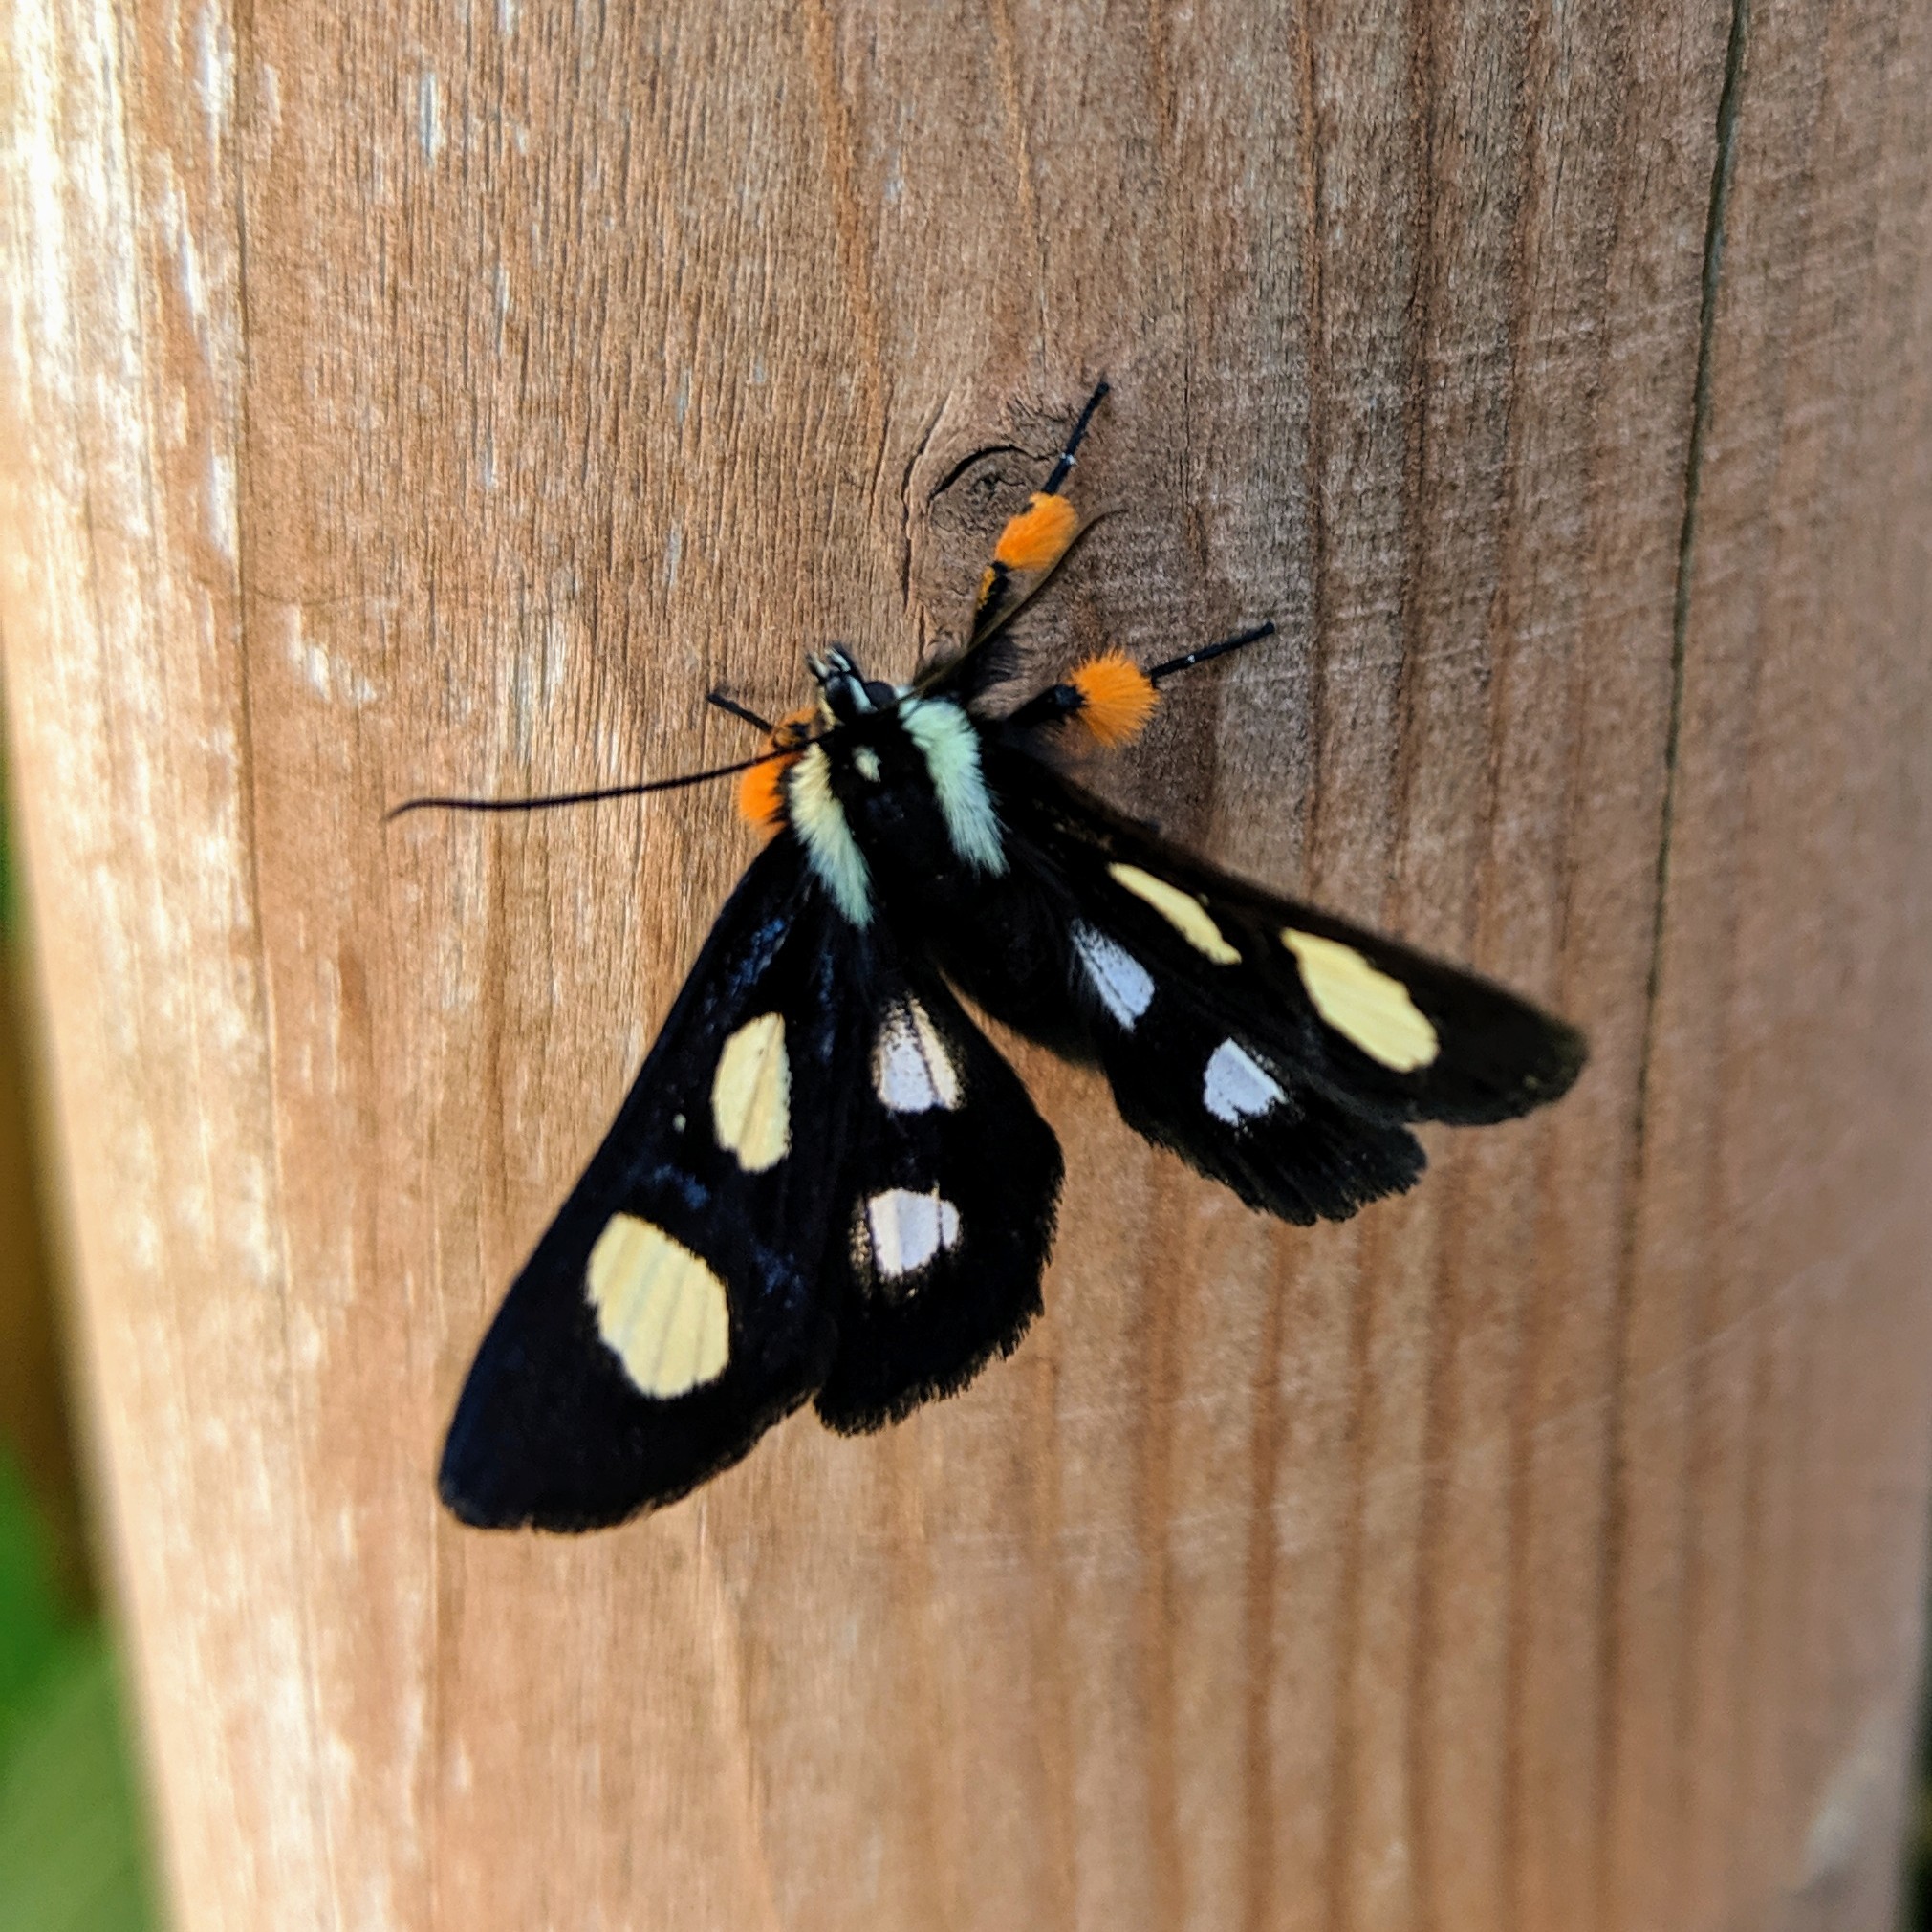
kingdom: Animalia
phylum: Arthropoda
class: Insecta
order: Lepidoptera
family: Noctuidae
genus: Alypia
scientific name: Alypia octomaculata
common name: Eight-spotted forester
